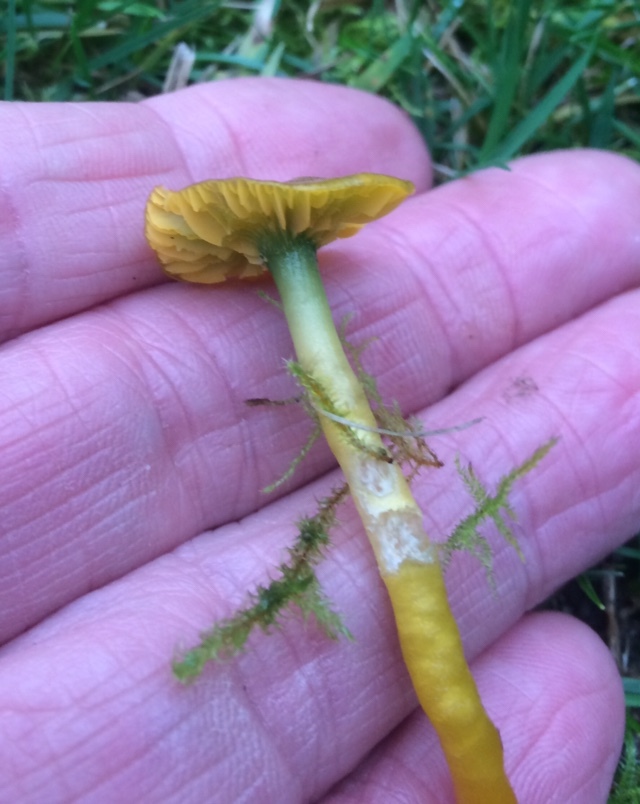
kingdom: Fungi
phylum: Basidiomycota
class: Agaricomycetes
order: Agaricales
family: Hygrophoraceae
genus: Gliophorus
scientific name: Gliophorus psittacinus
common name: Parrot wax-cap
